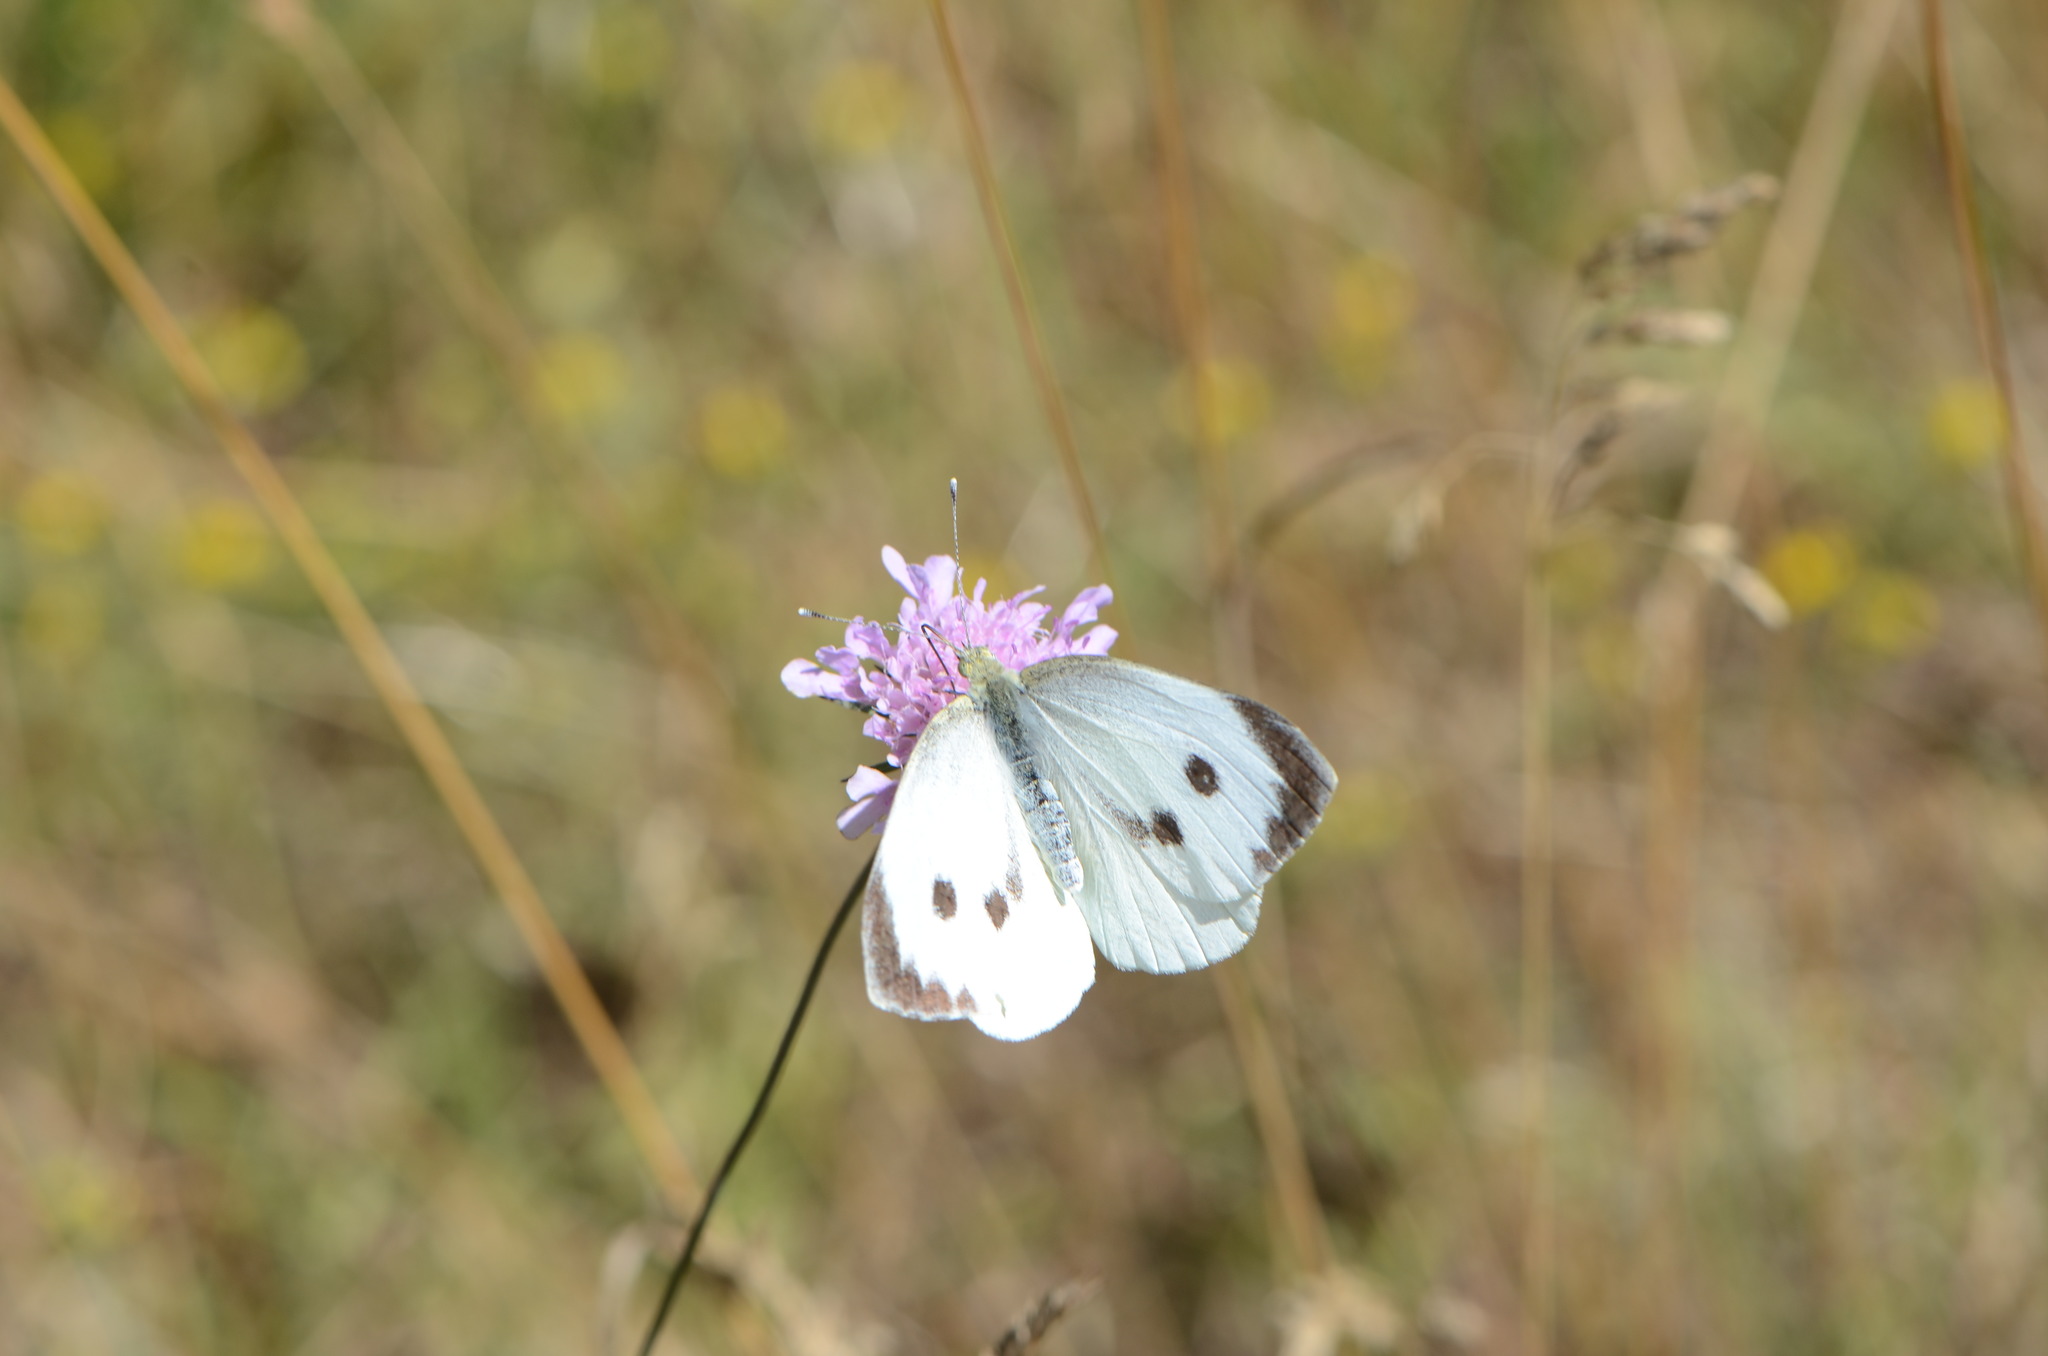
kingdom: Animalia
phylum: Arthropoda
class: Insecta
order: Lepidoptera
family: Pieridae
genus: Pieris
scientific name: Pieris brassicae
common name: Large white
